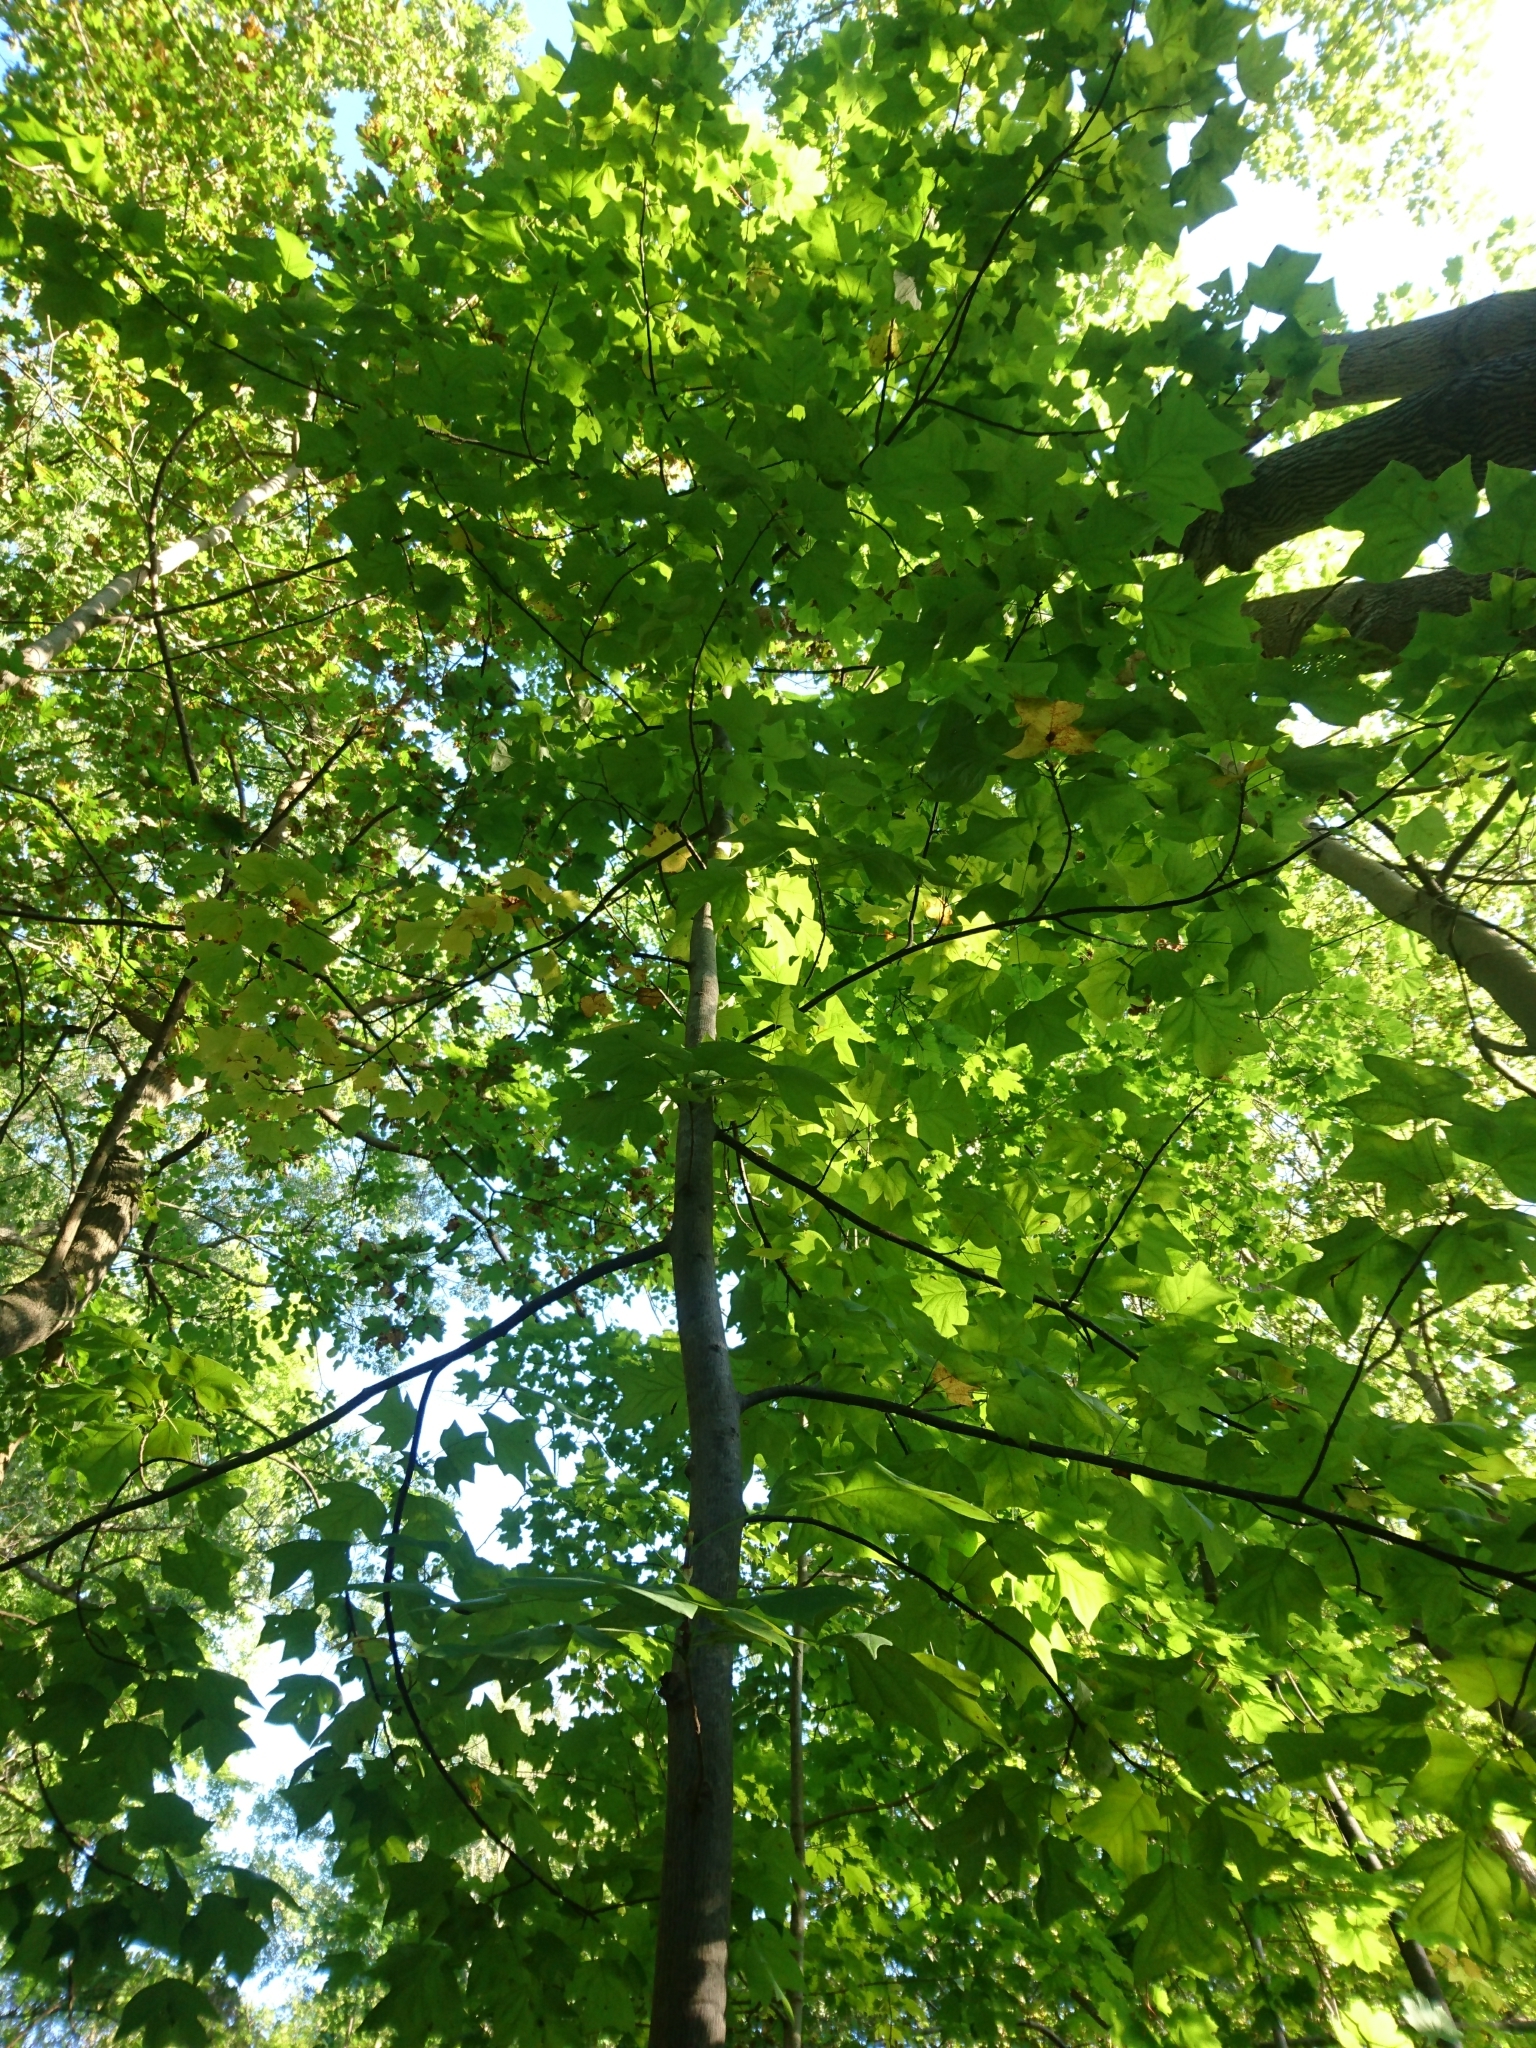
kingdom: Plantae
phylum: Tracheophyta
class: Magnoliopsida
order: Magnoliales
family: Magnoliaceae
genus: Liriodendron
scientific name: Liriodendron tulipifera
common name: Tulip tree
